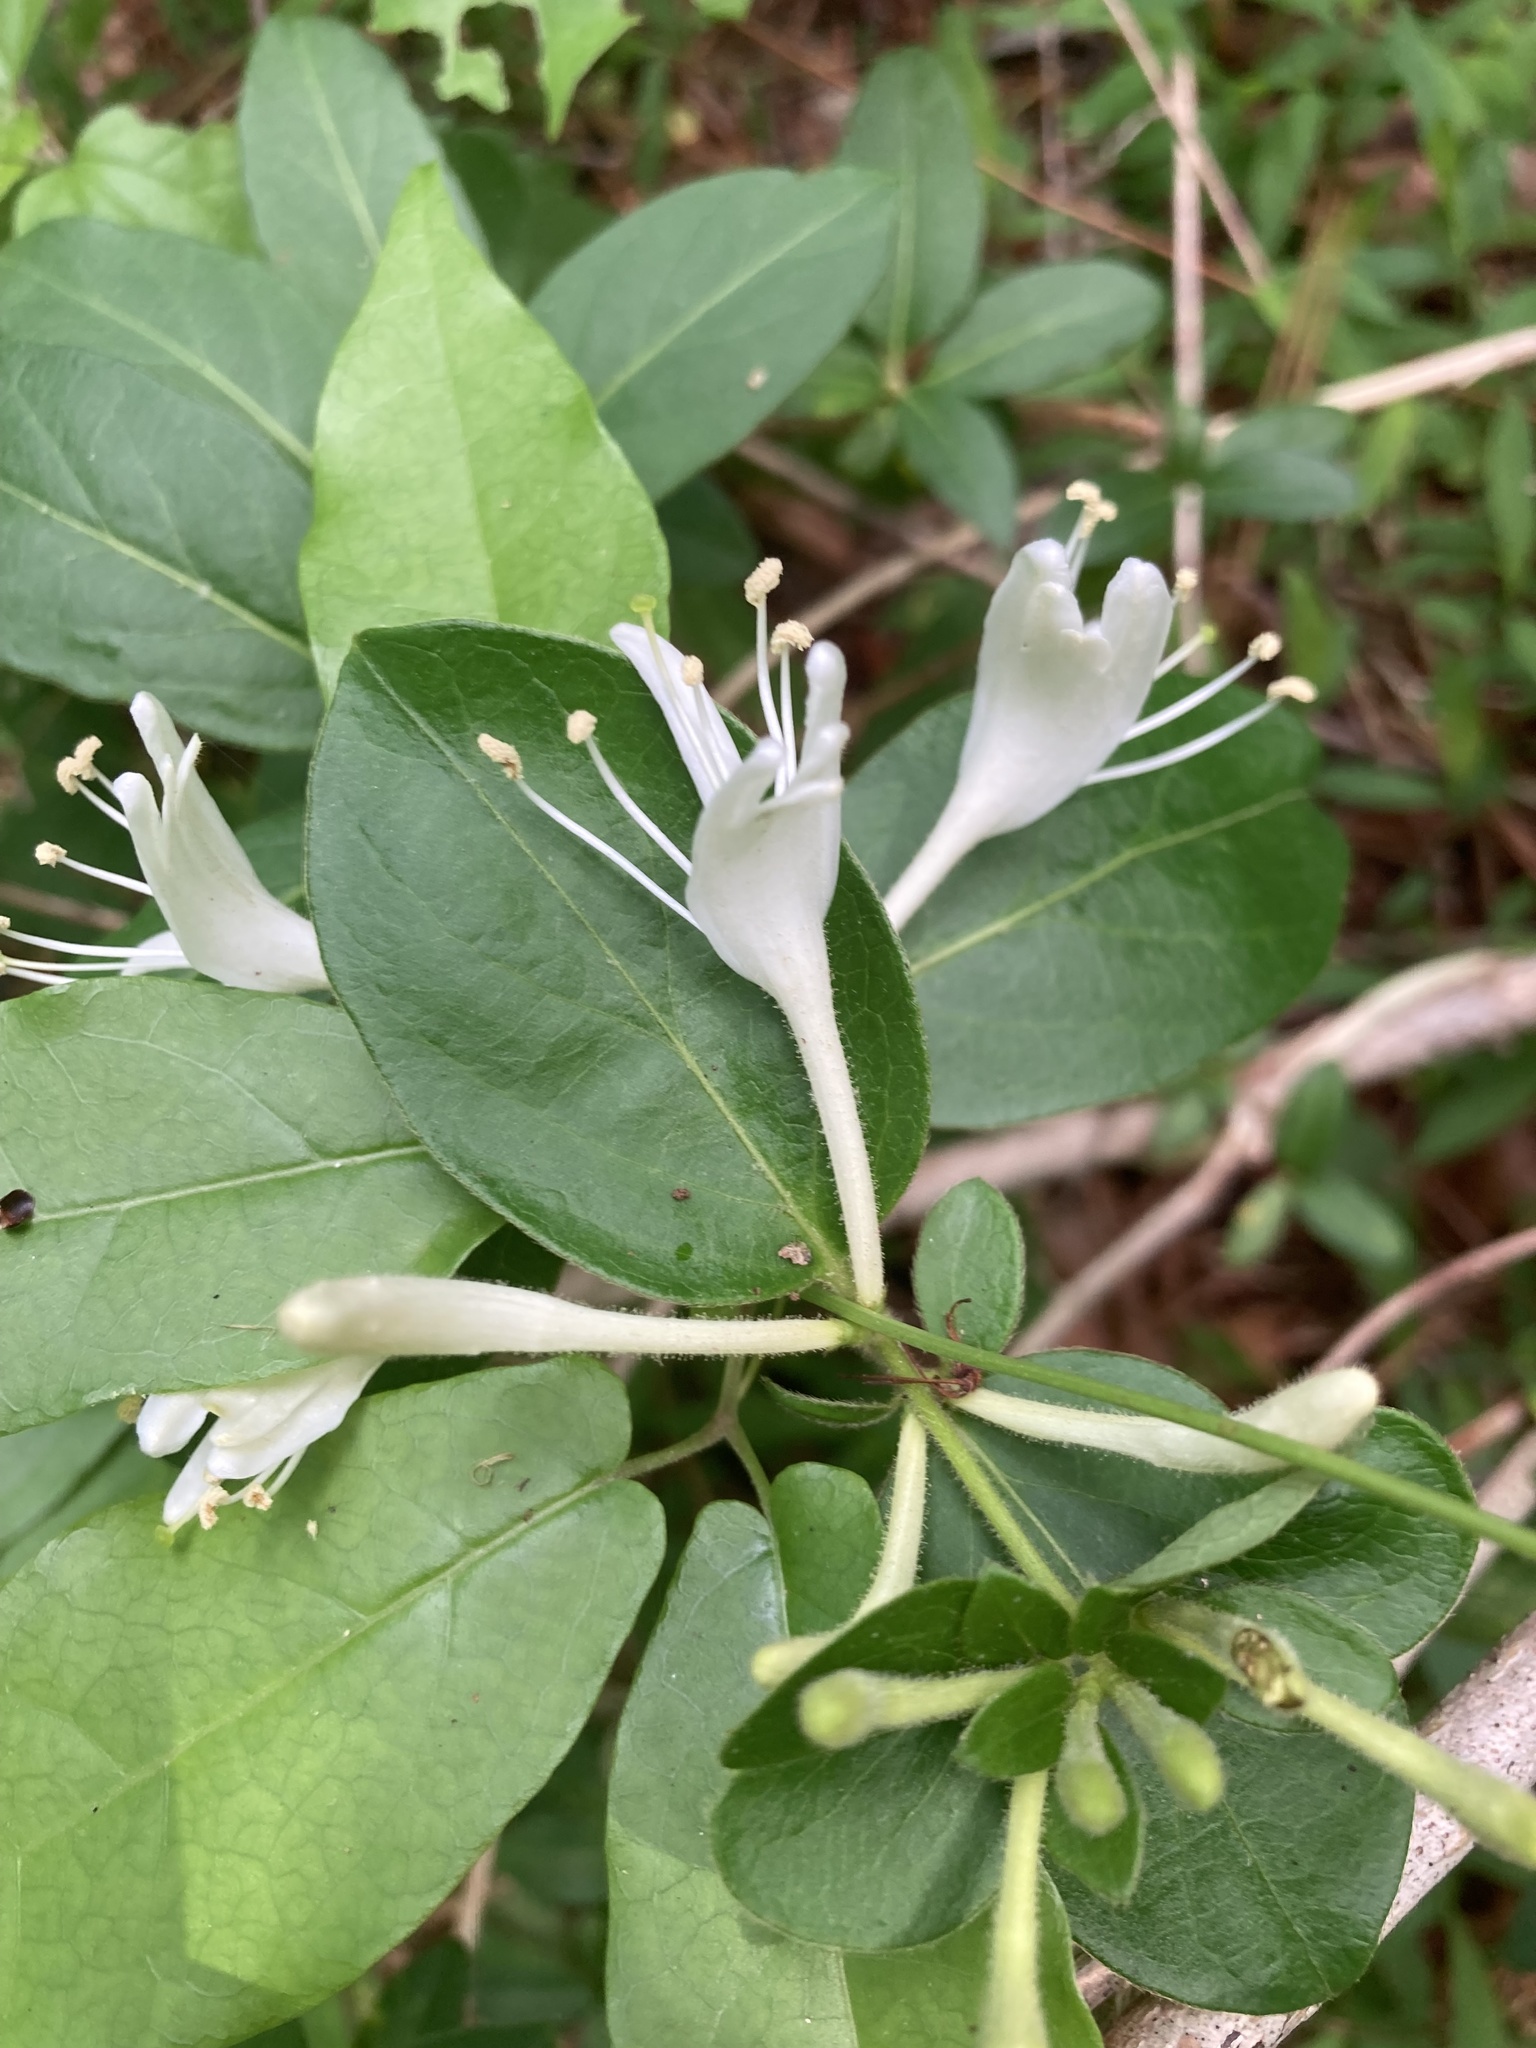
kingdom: Plantae
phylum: Tracheophyta
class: Magnoliopsida
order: Dipsacales
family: Caprifoliaceae
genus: Lonicera
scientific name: Lonicera japonica
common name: Japanese honeysuckle
